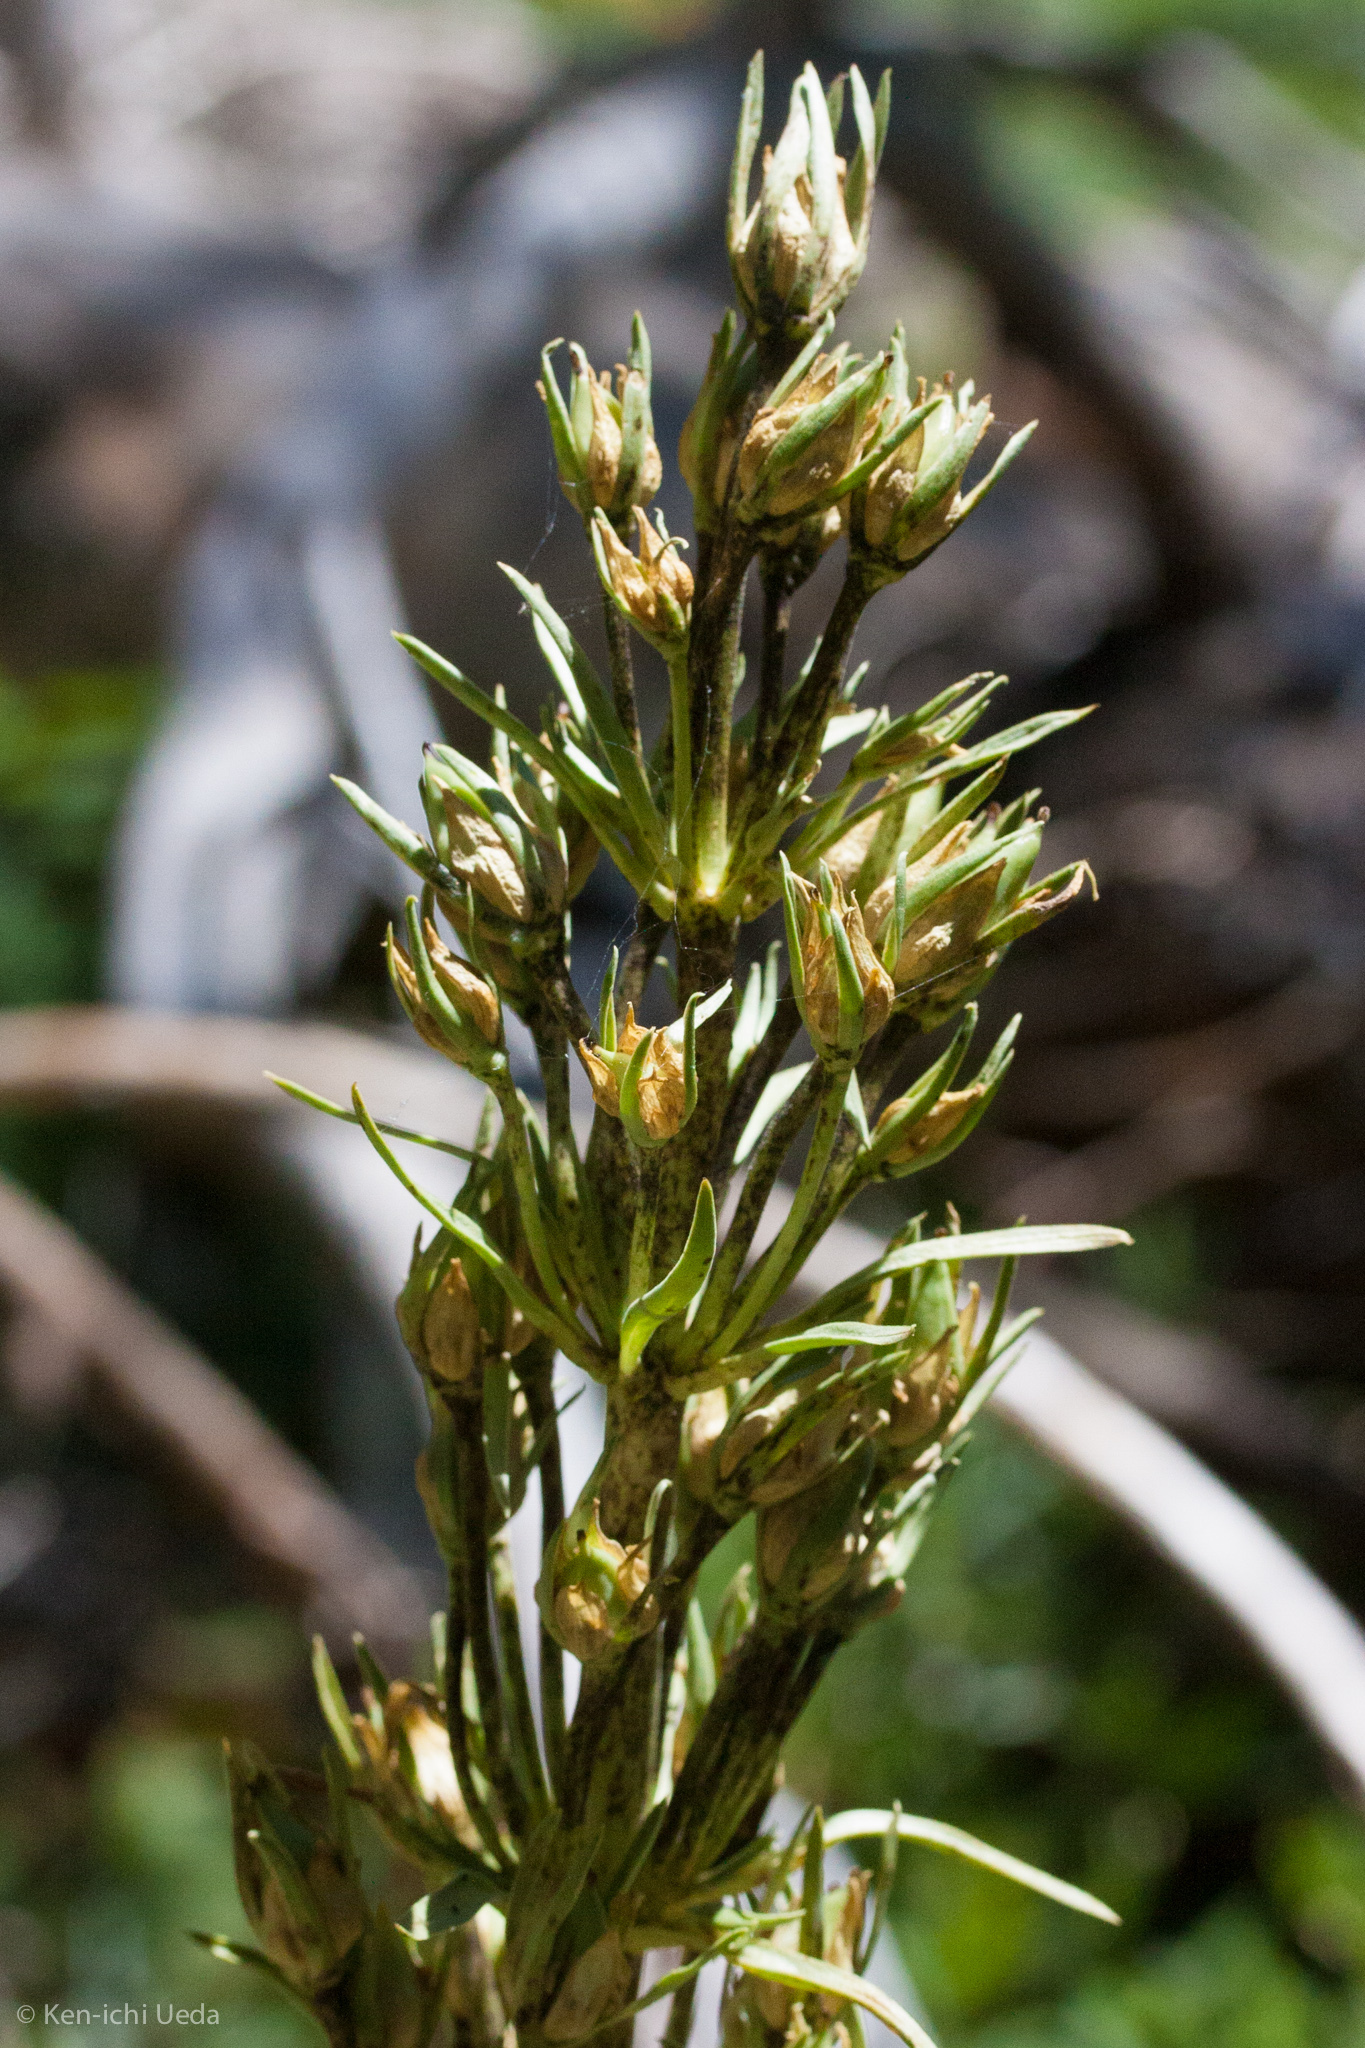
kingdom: Plantae
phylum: Tracheophyta
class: Magnoliopsida
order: Gentianales
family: Gentianaceae
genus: Frasera
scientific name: Frasera speciosa
